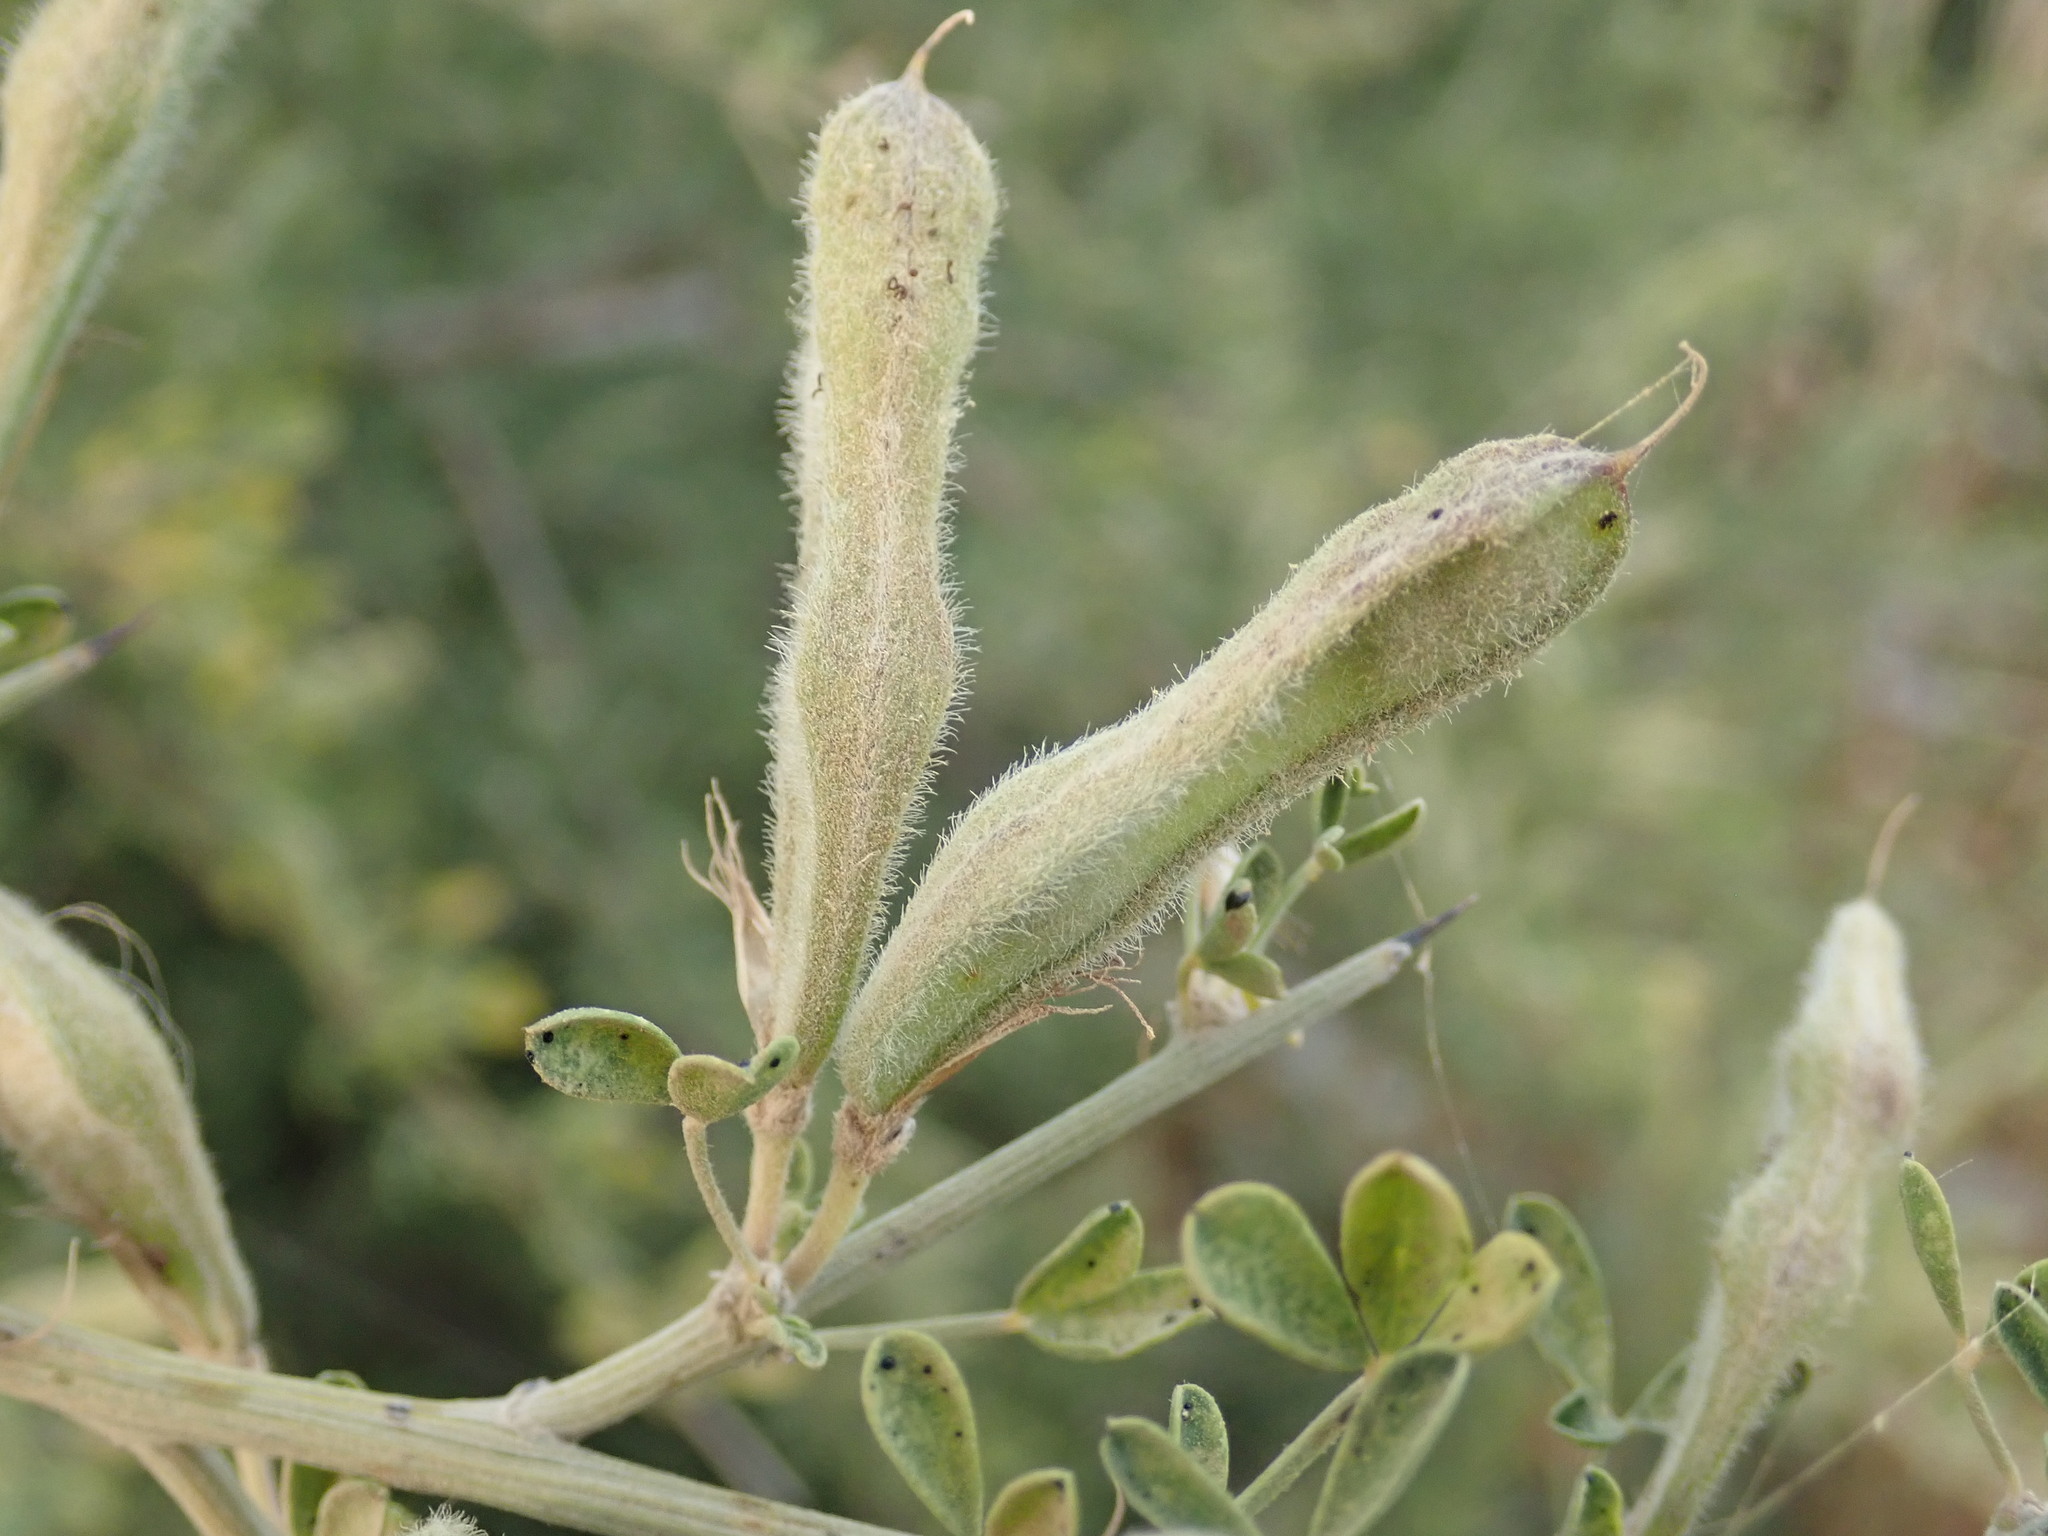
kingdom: Plantae
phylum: Tracheophyta
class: Magnoliopsida
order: Fabales
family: Fabaceae
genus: Calicotome
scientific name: Calicotome villosa
